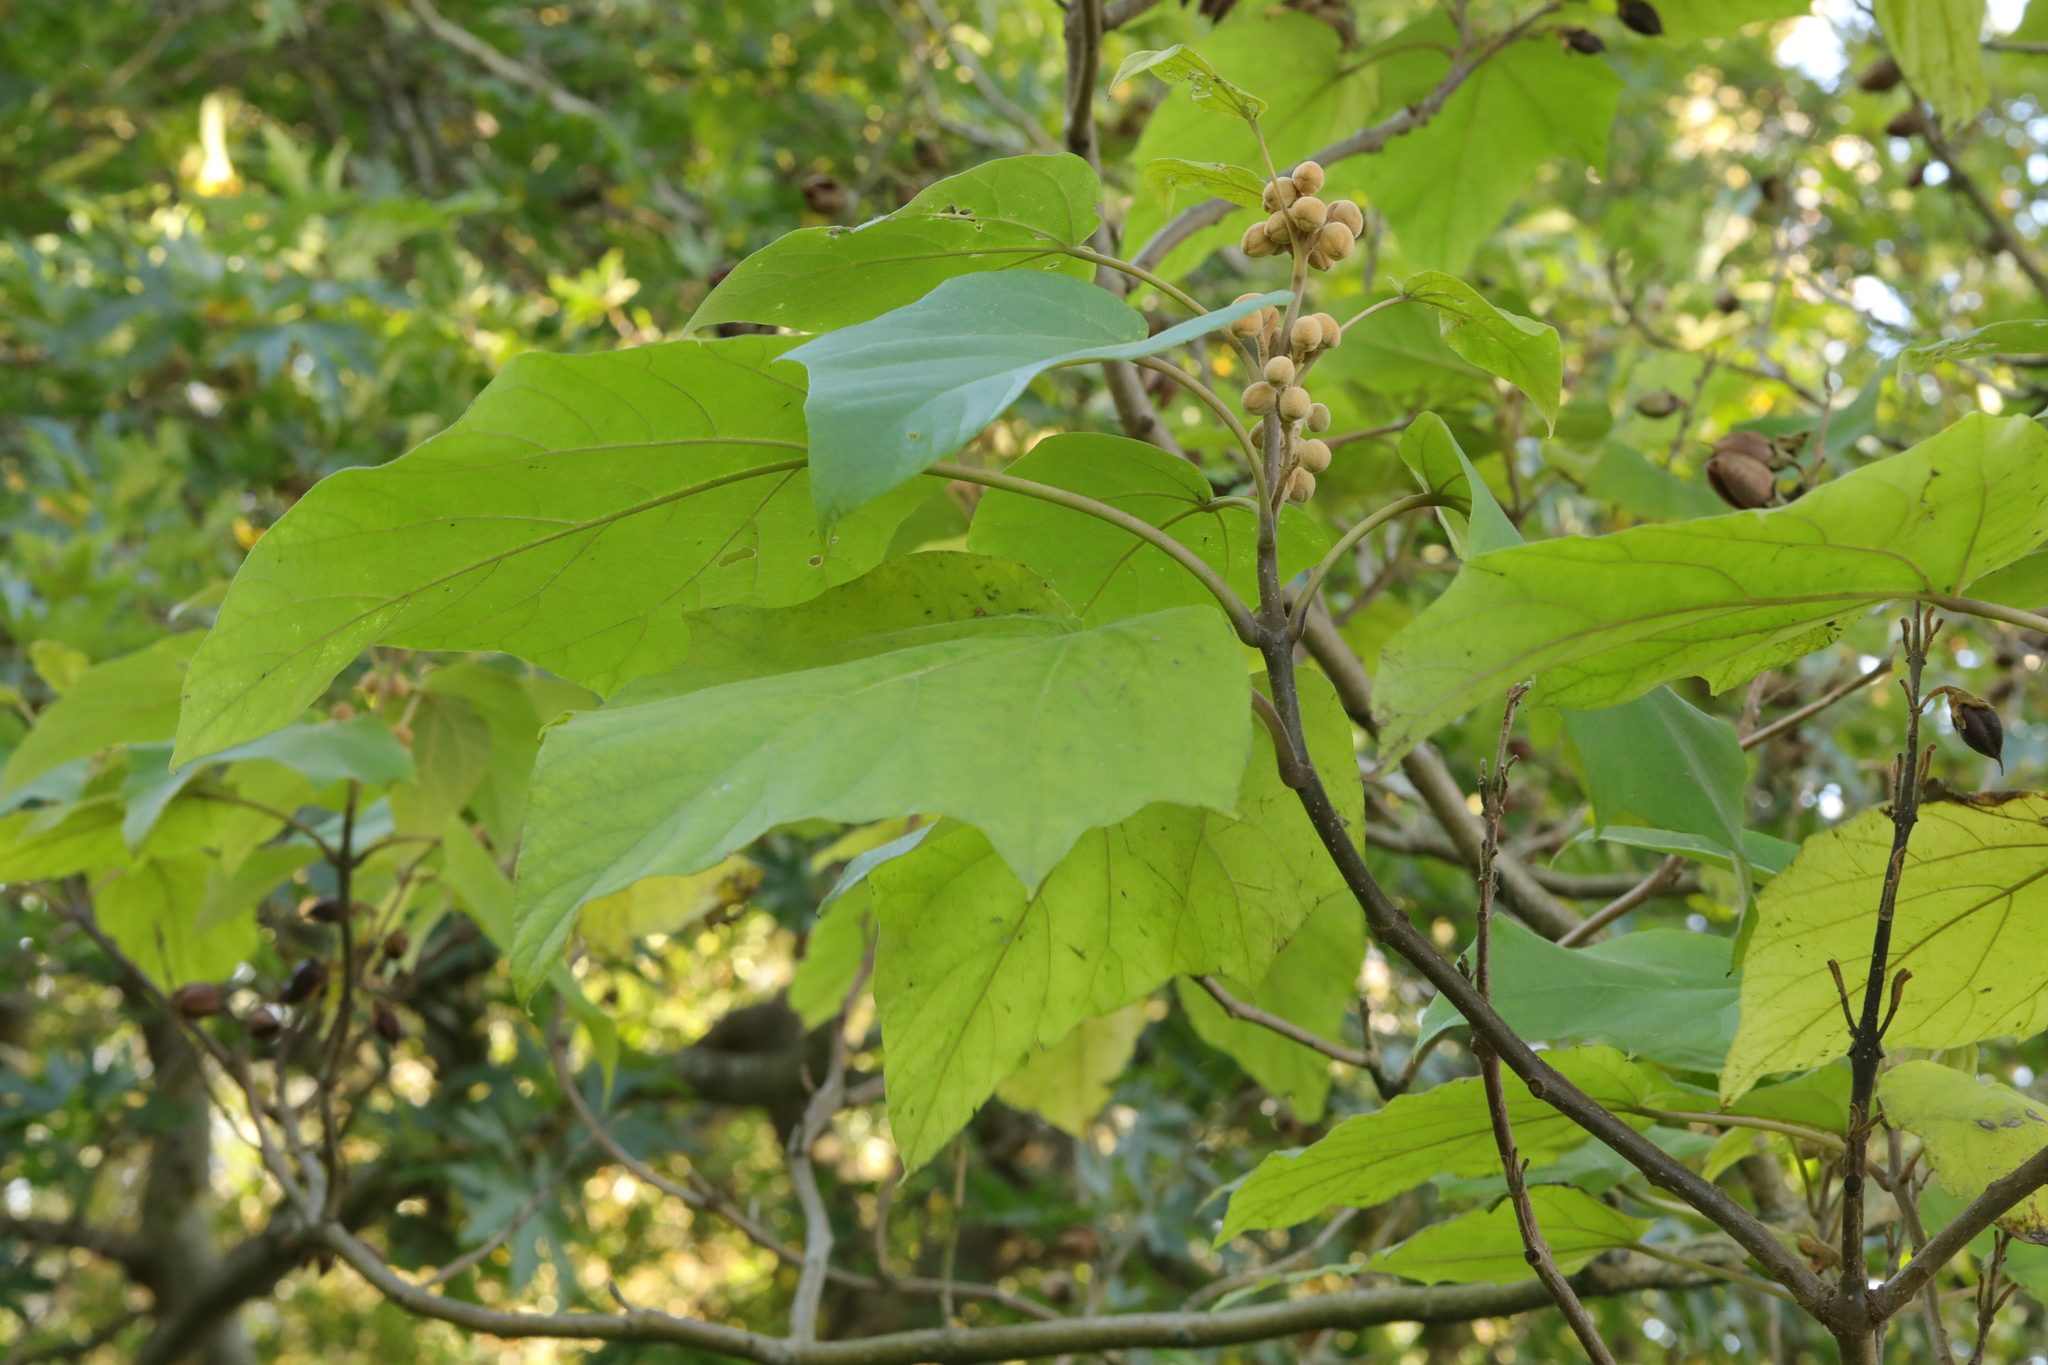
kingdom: Plantae
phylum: Tracheophyta
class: Magnoliopsida
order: Lamiales
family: Paulowniaceae
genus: Paulownia
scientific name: Paulownia tomentosa
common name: Foxglove-tree
